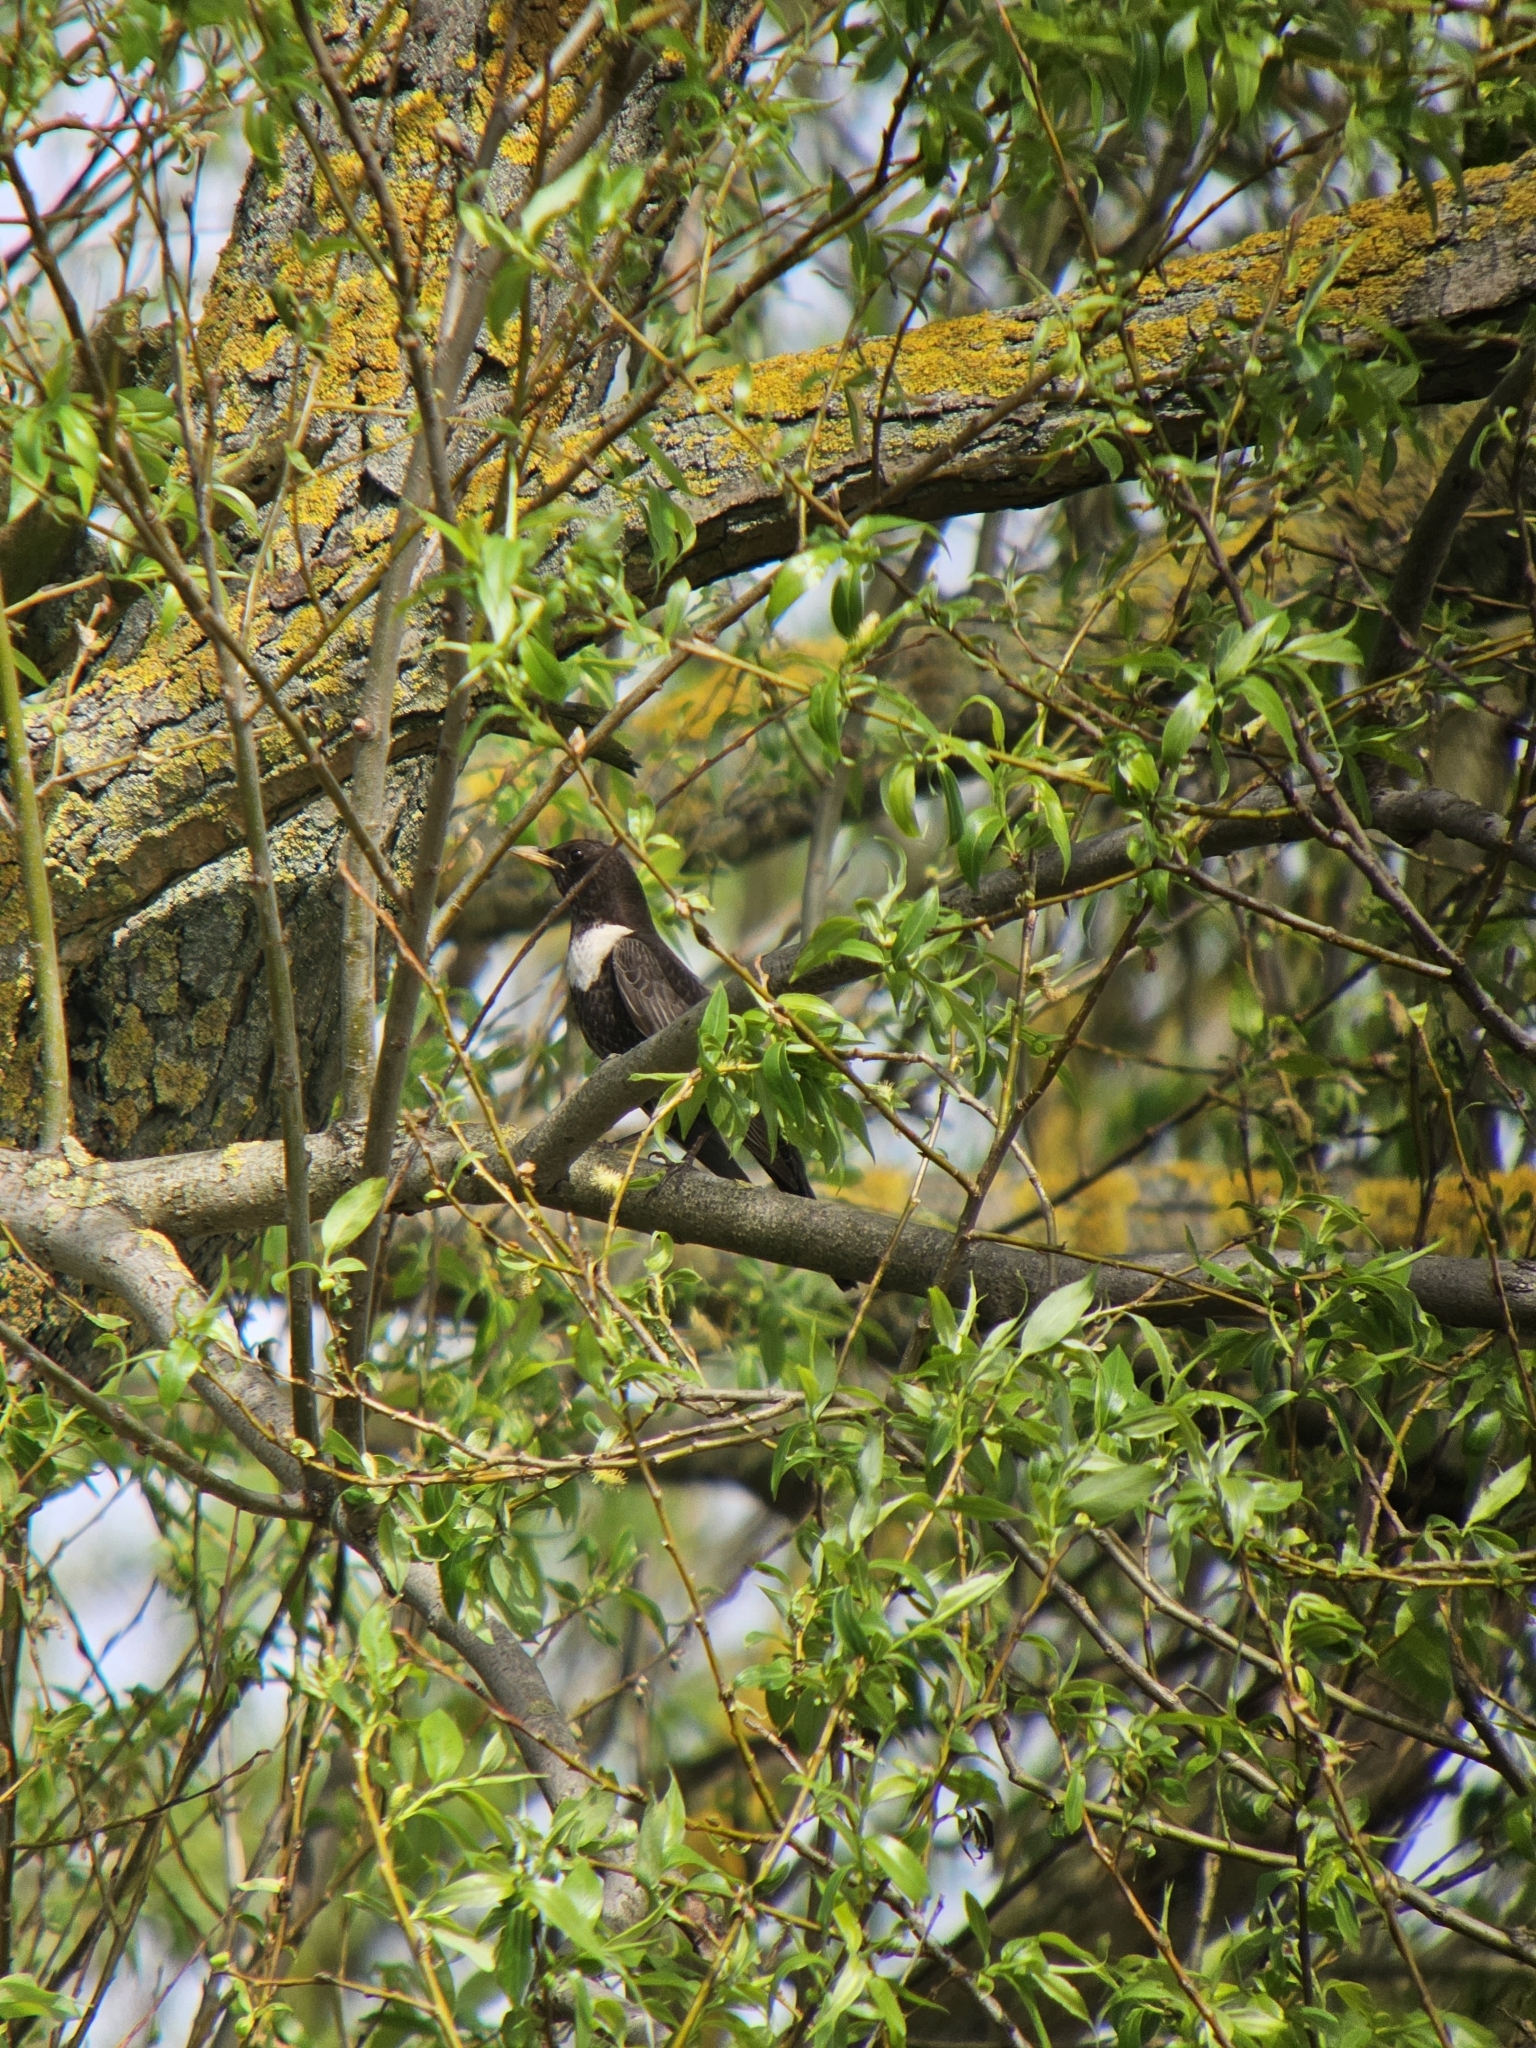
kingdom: Animalia
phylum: Chordata
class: Aves
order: Passeriformes
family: Turdidae
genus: Turdus
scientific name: Turdus torquatus
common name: Ring ouzel
